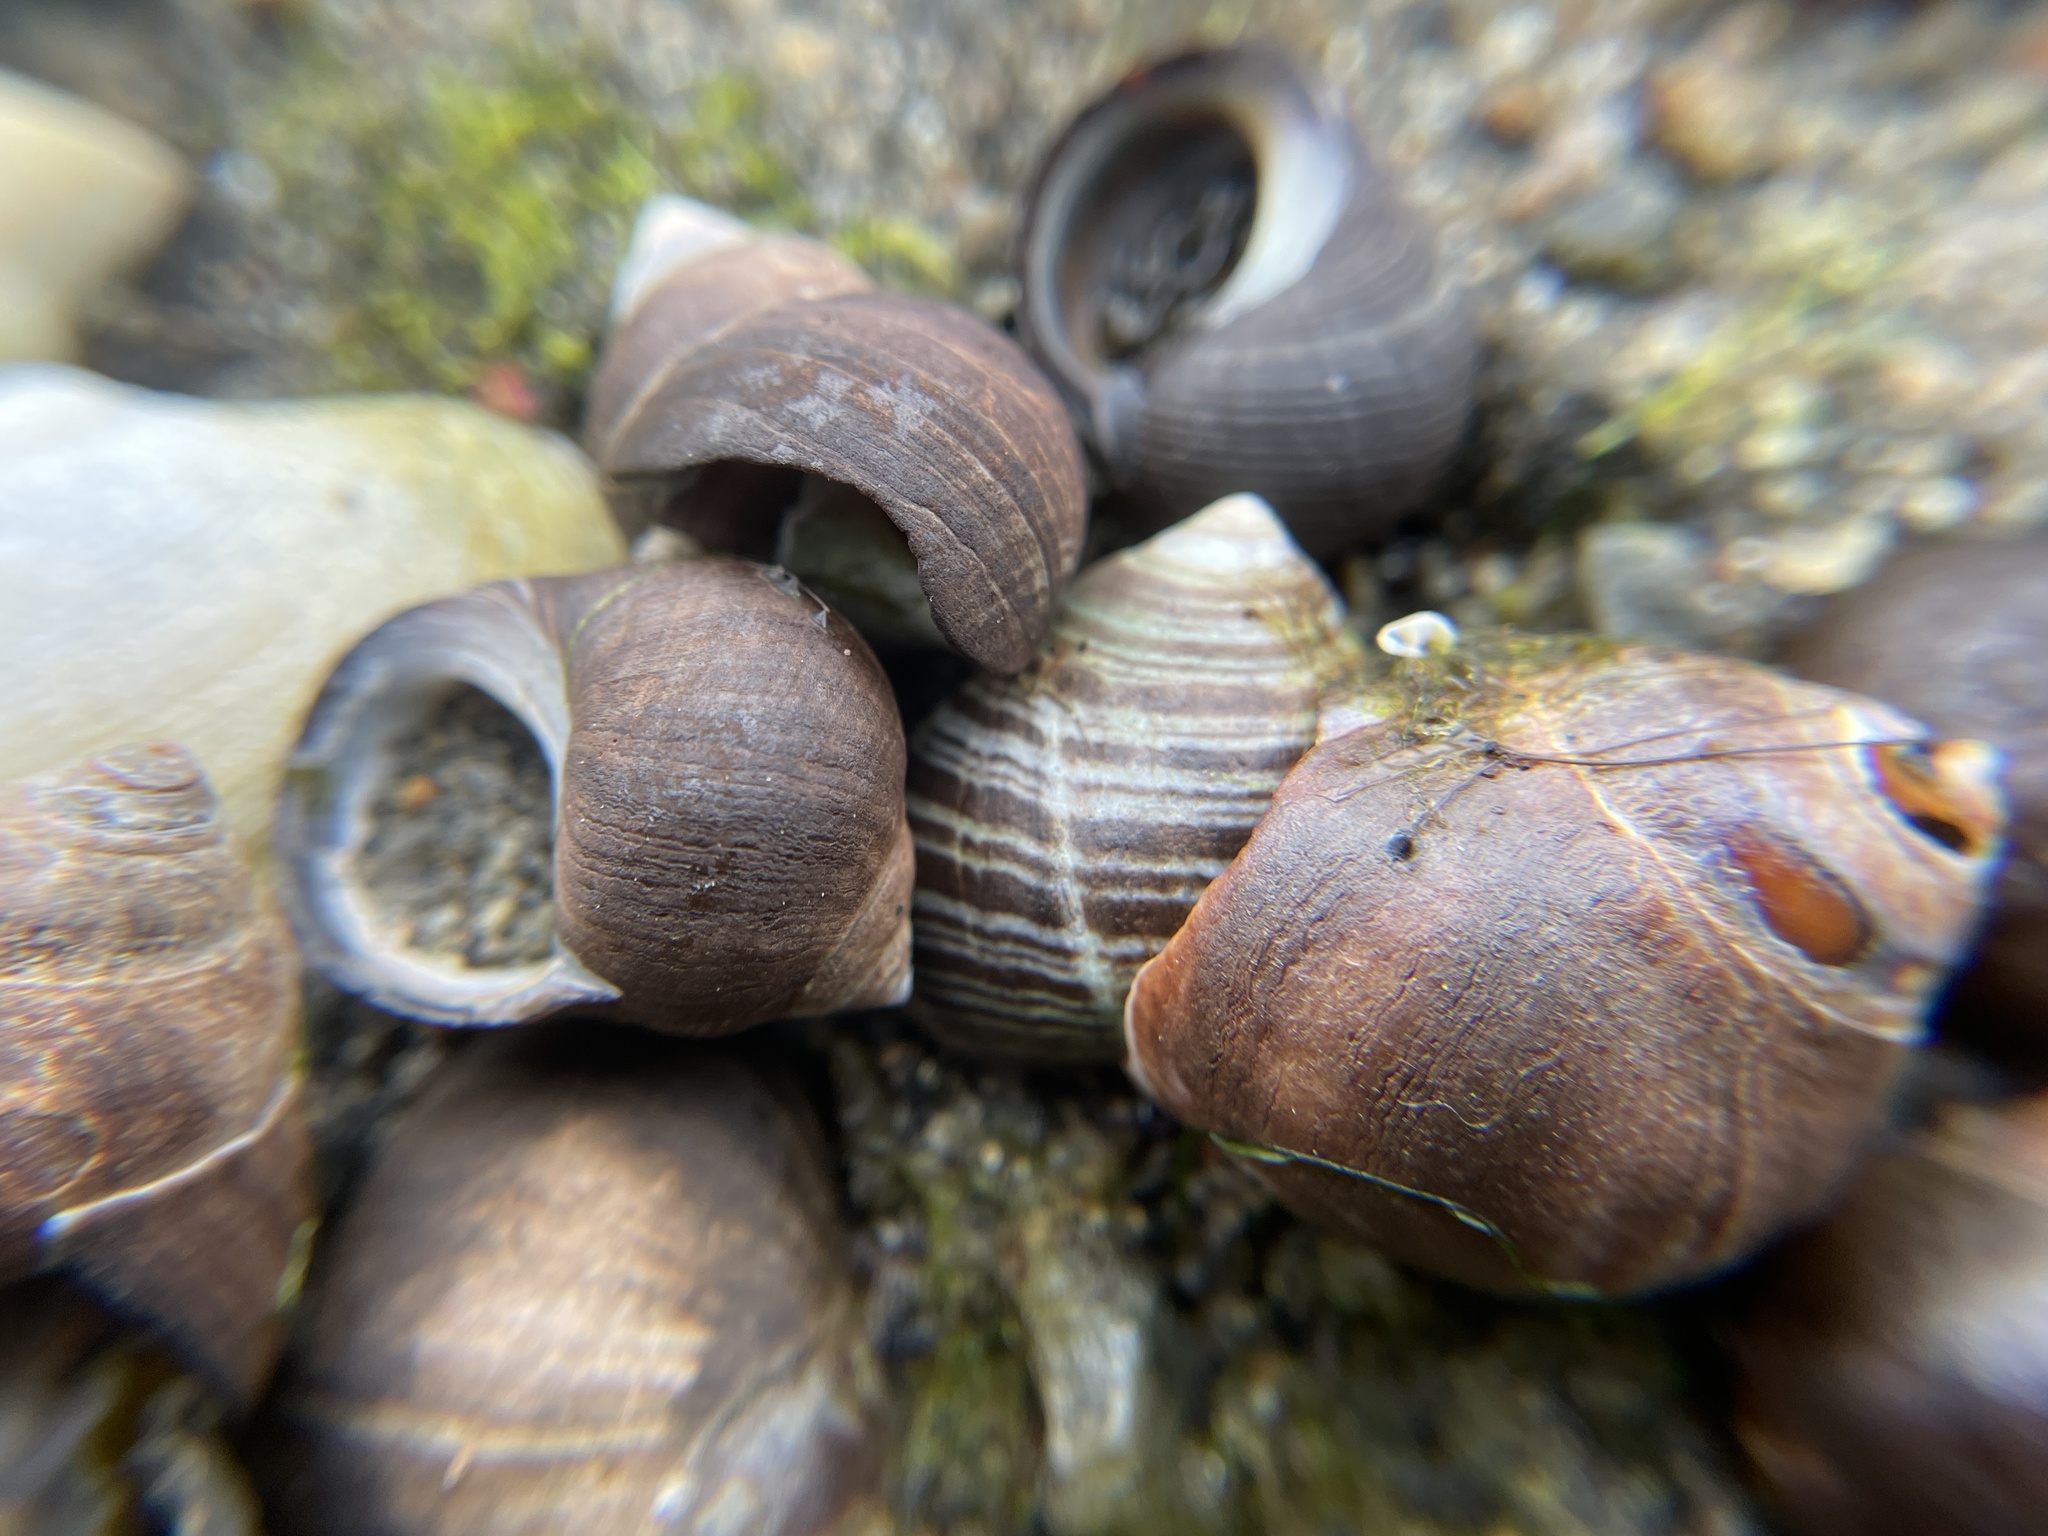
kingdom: Animalia
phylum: Mollusca
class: Gastropoda
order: Littorinimorpha
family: Littorinidae
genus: Littorina
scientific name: Littorina littorea
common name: Common periwinkle
